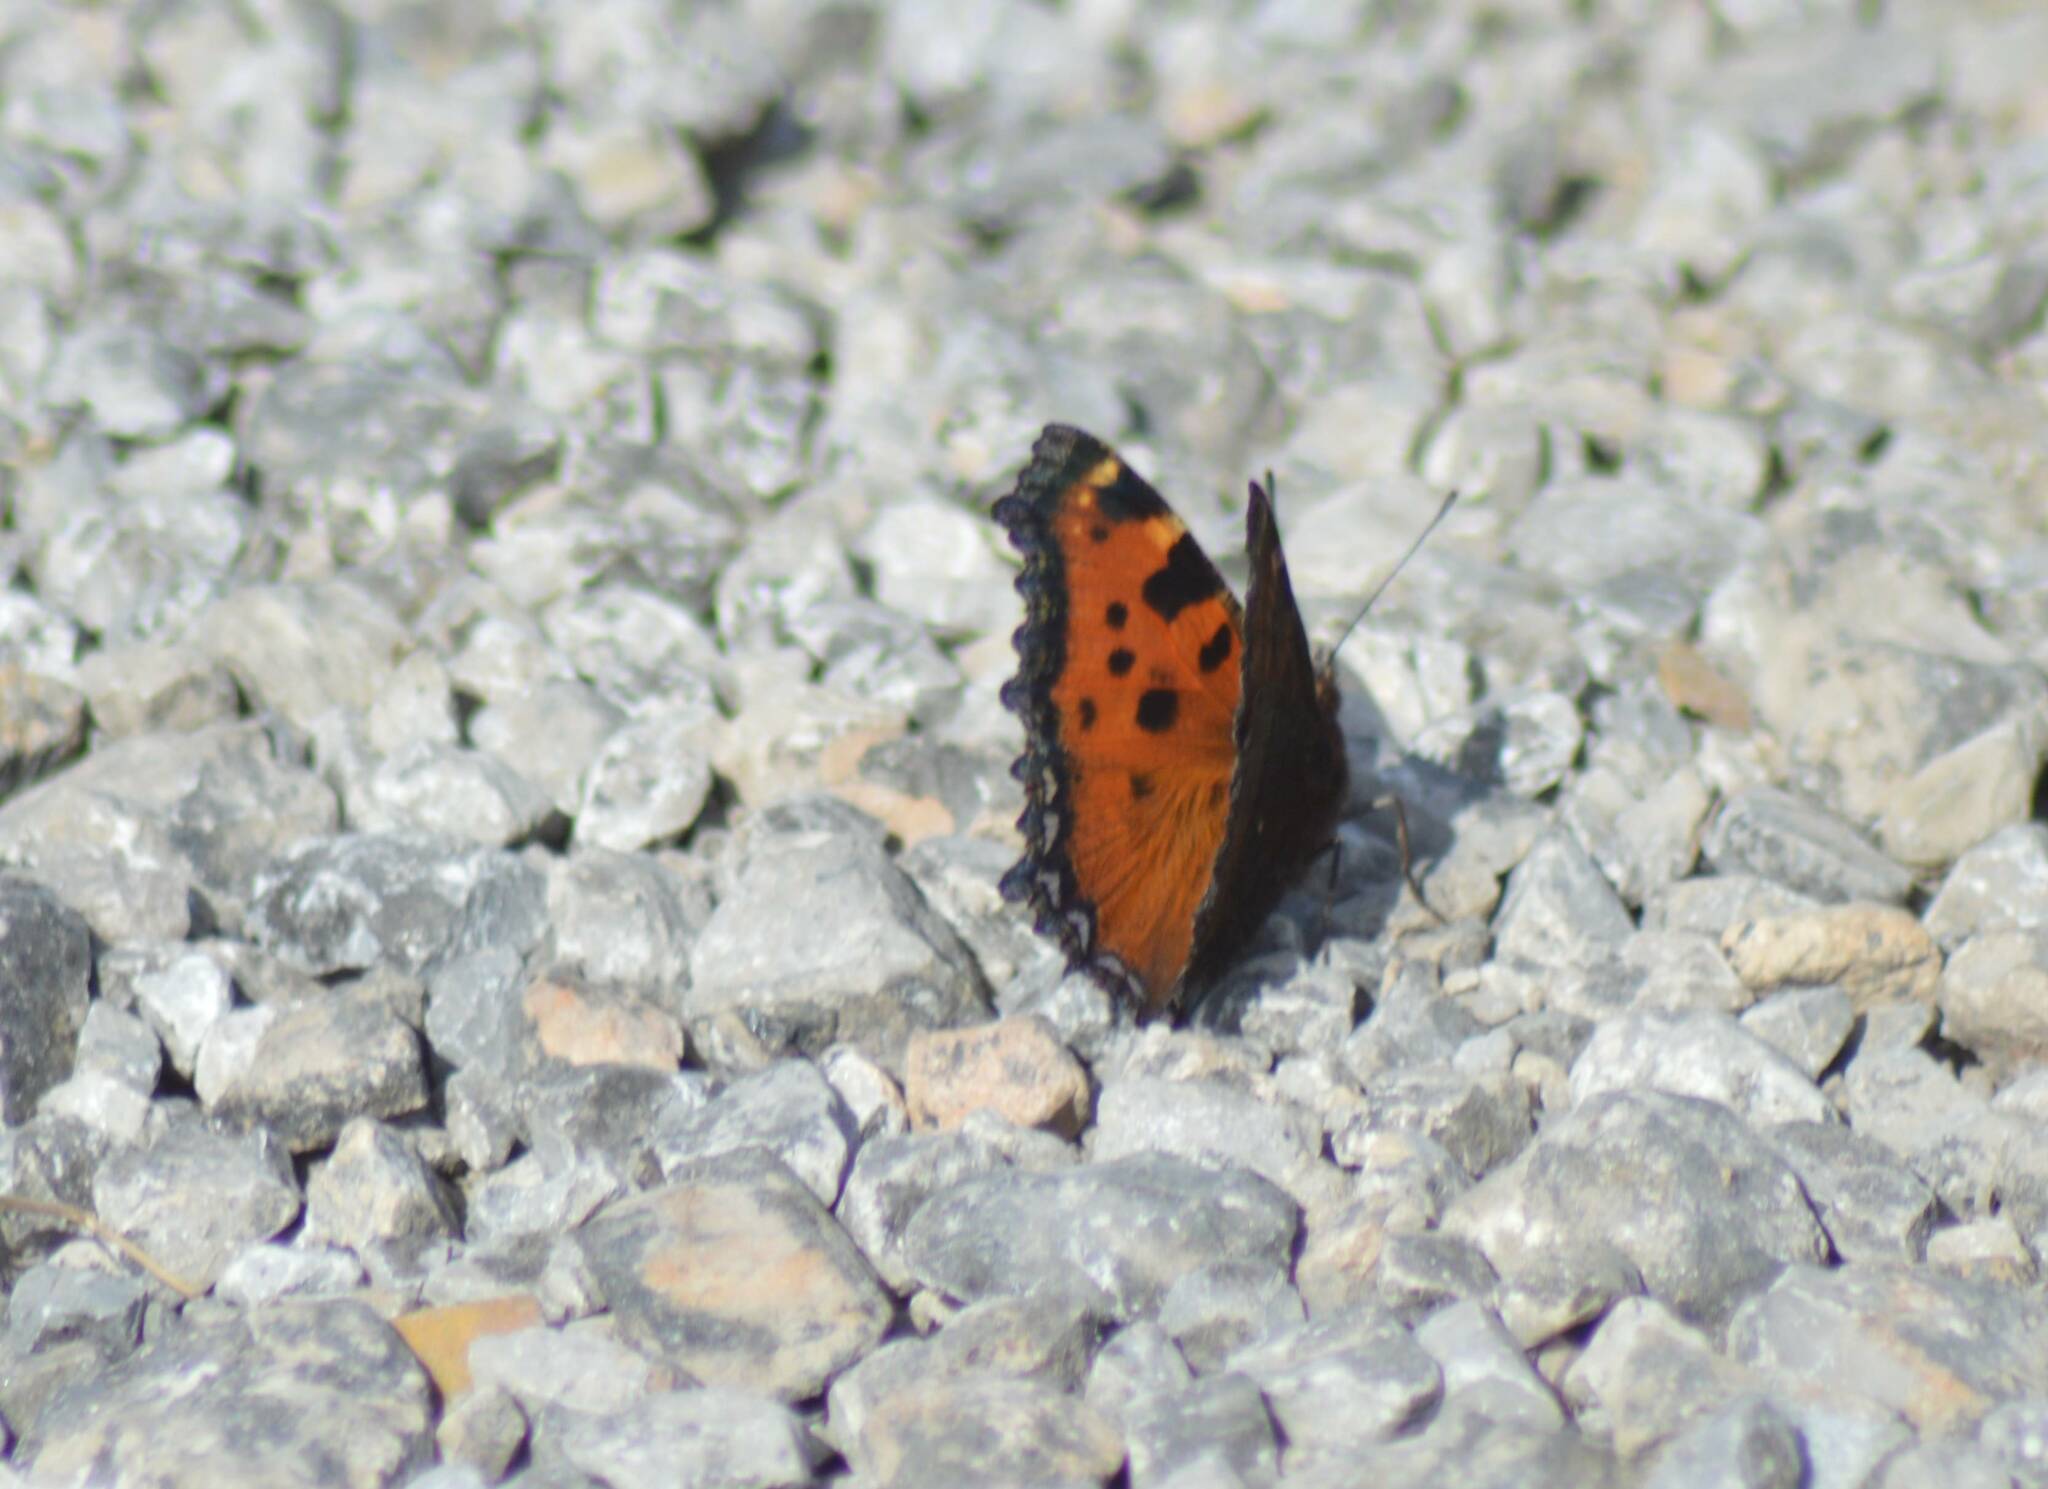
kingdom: Animalia
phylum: Arthropoda
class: Insecta
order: Lepidoptera
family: Nymphalidae
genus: Nymphalis
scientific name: Nymphalis polychloros
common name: Large tortoiseshell
